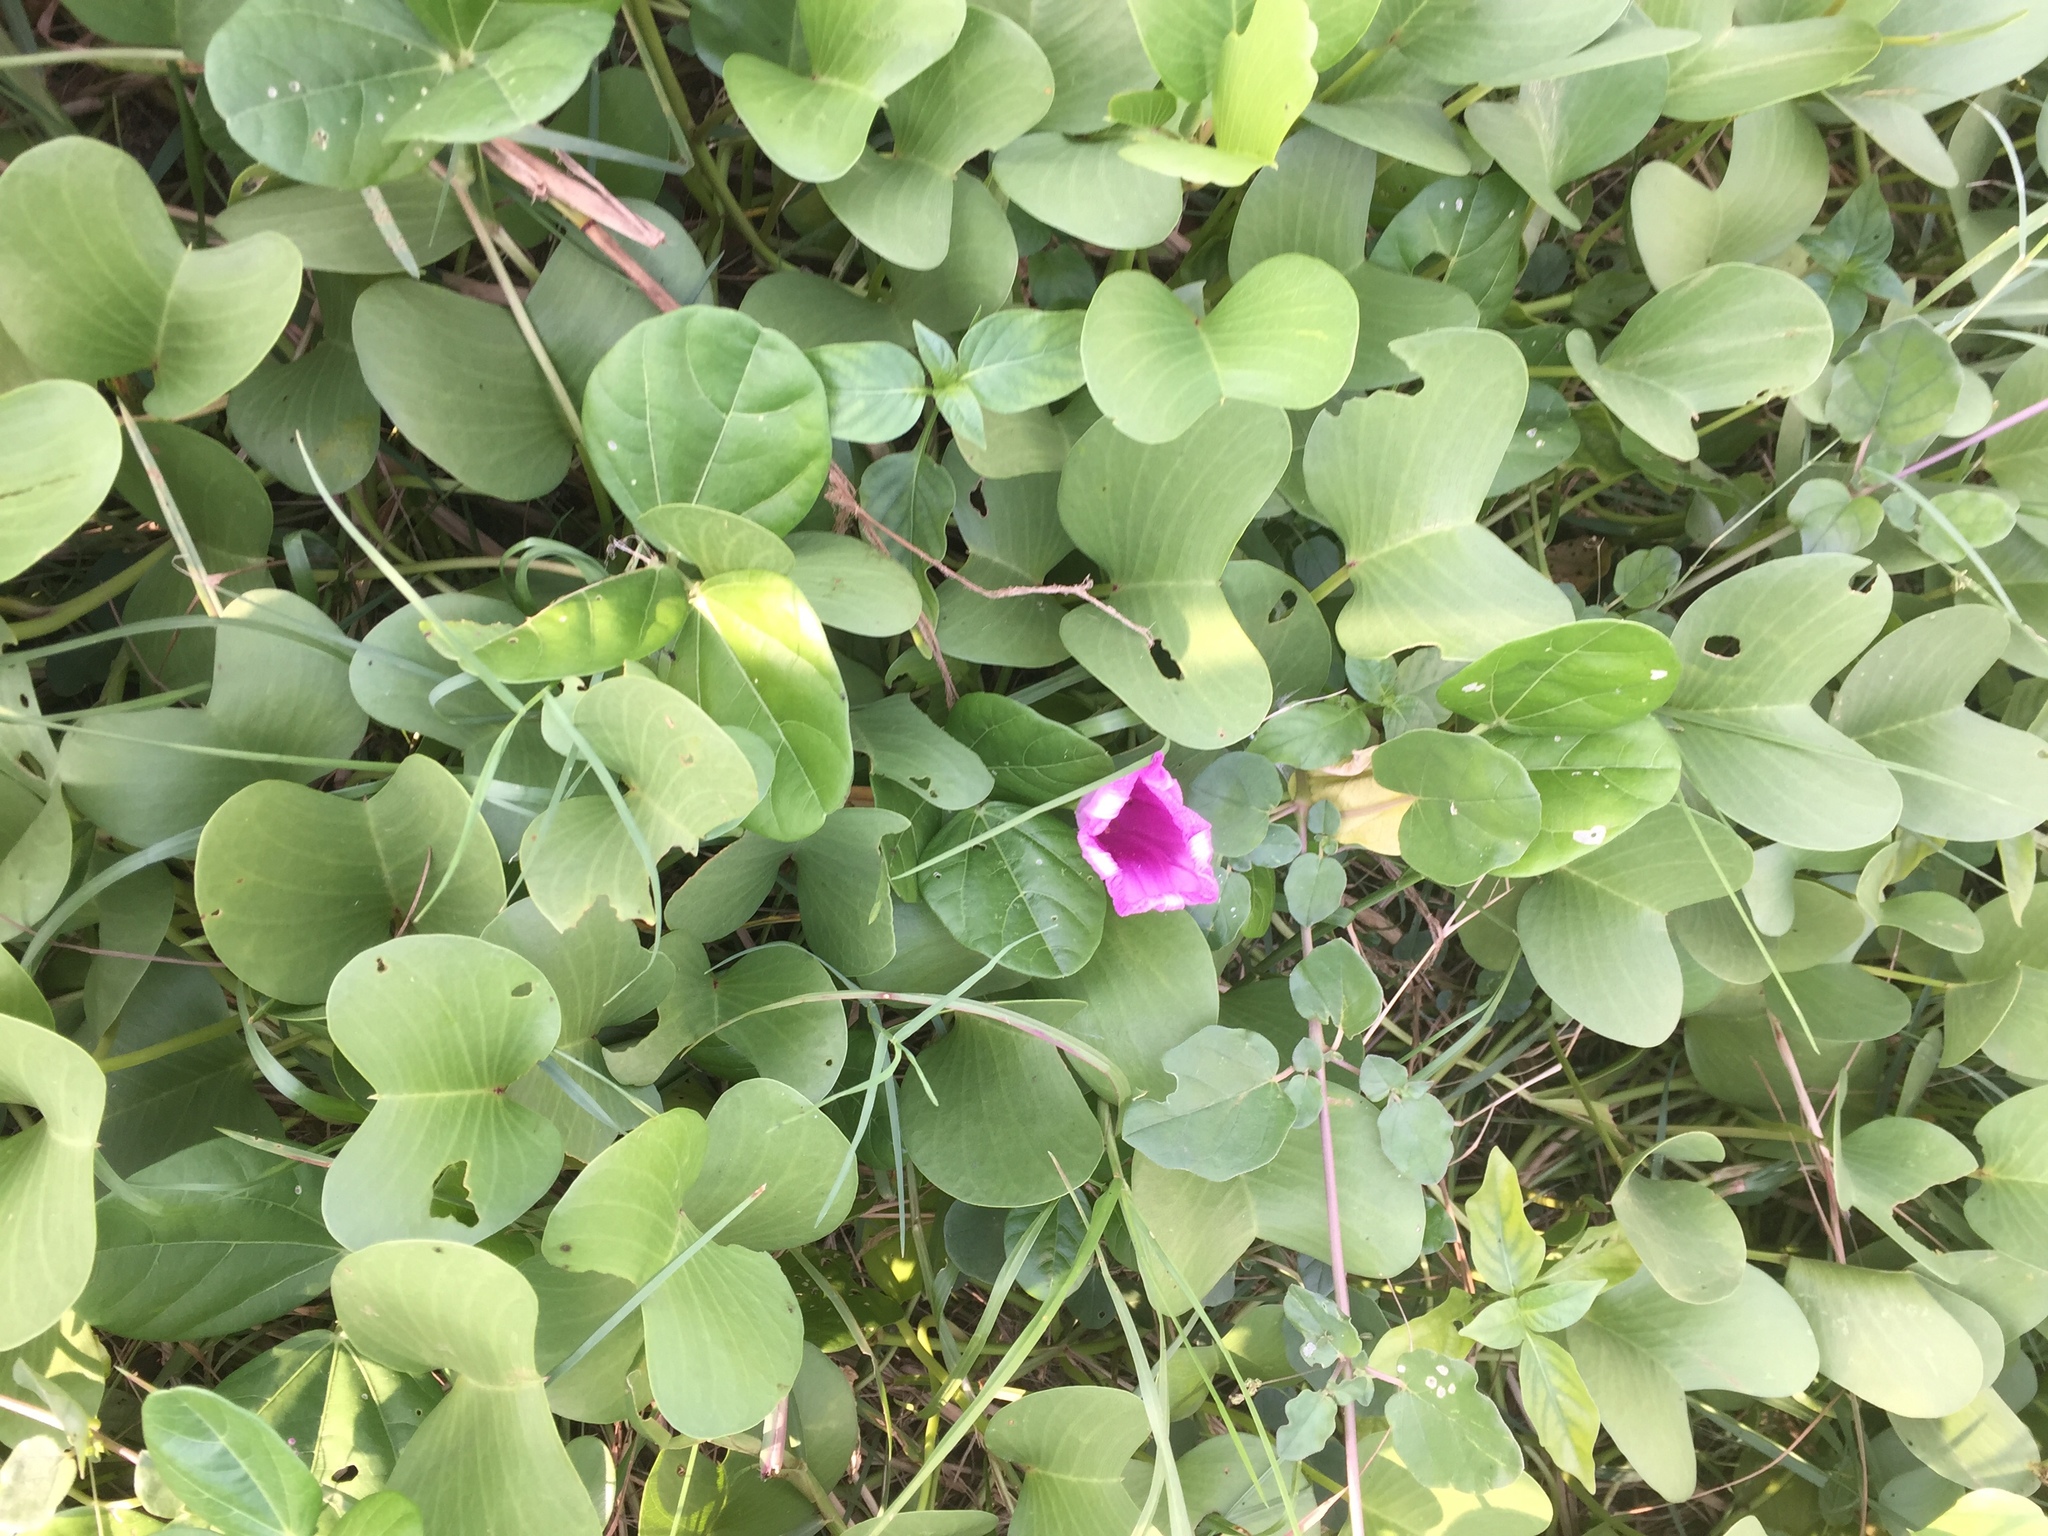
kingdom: Plantae
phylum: Tracheophyta
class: Magnoliopsida
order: Solanales
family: Convolvulaceae
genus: Ipomoea
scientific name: Ipomoea pes-caprae
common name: Beach morning glory
